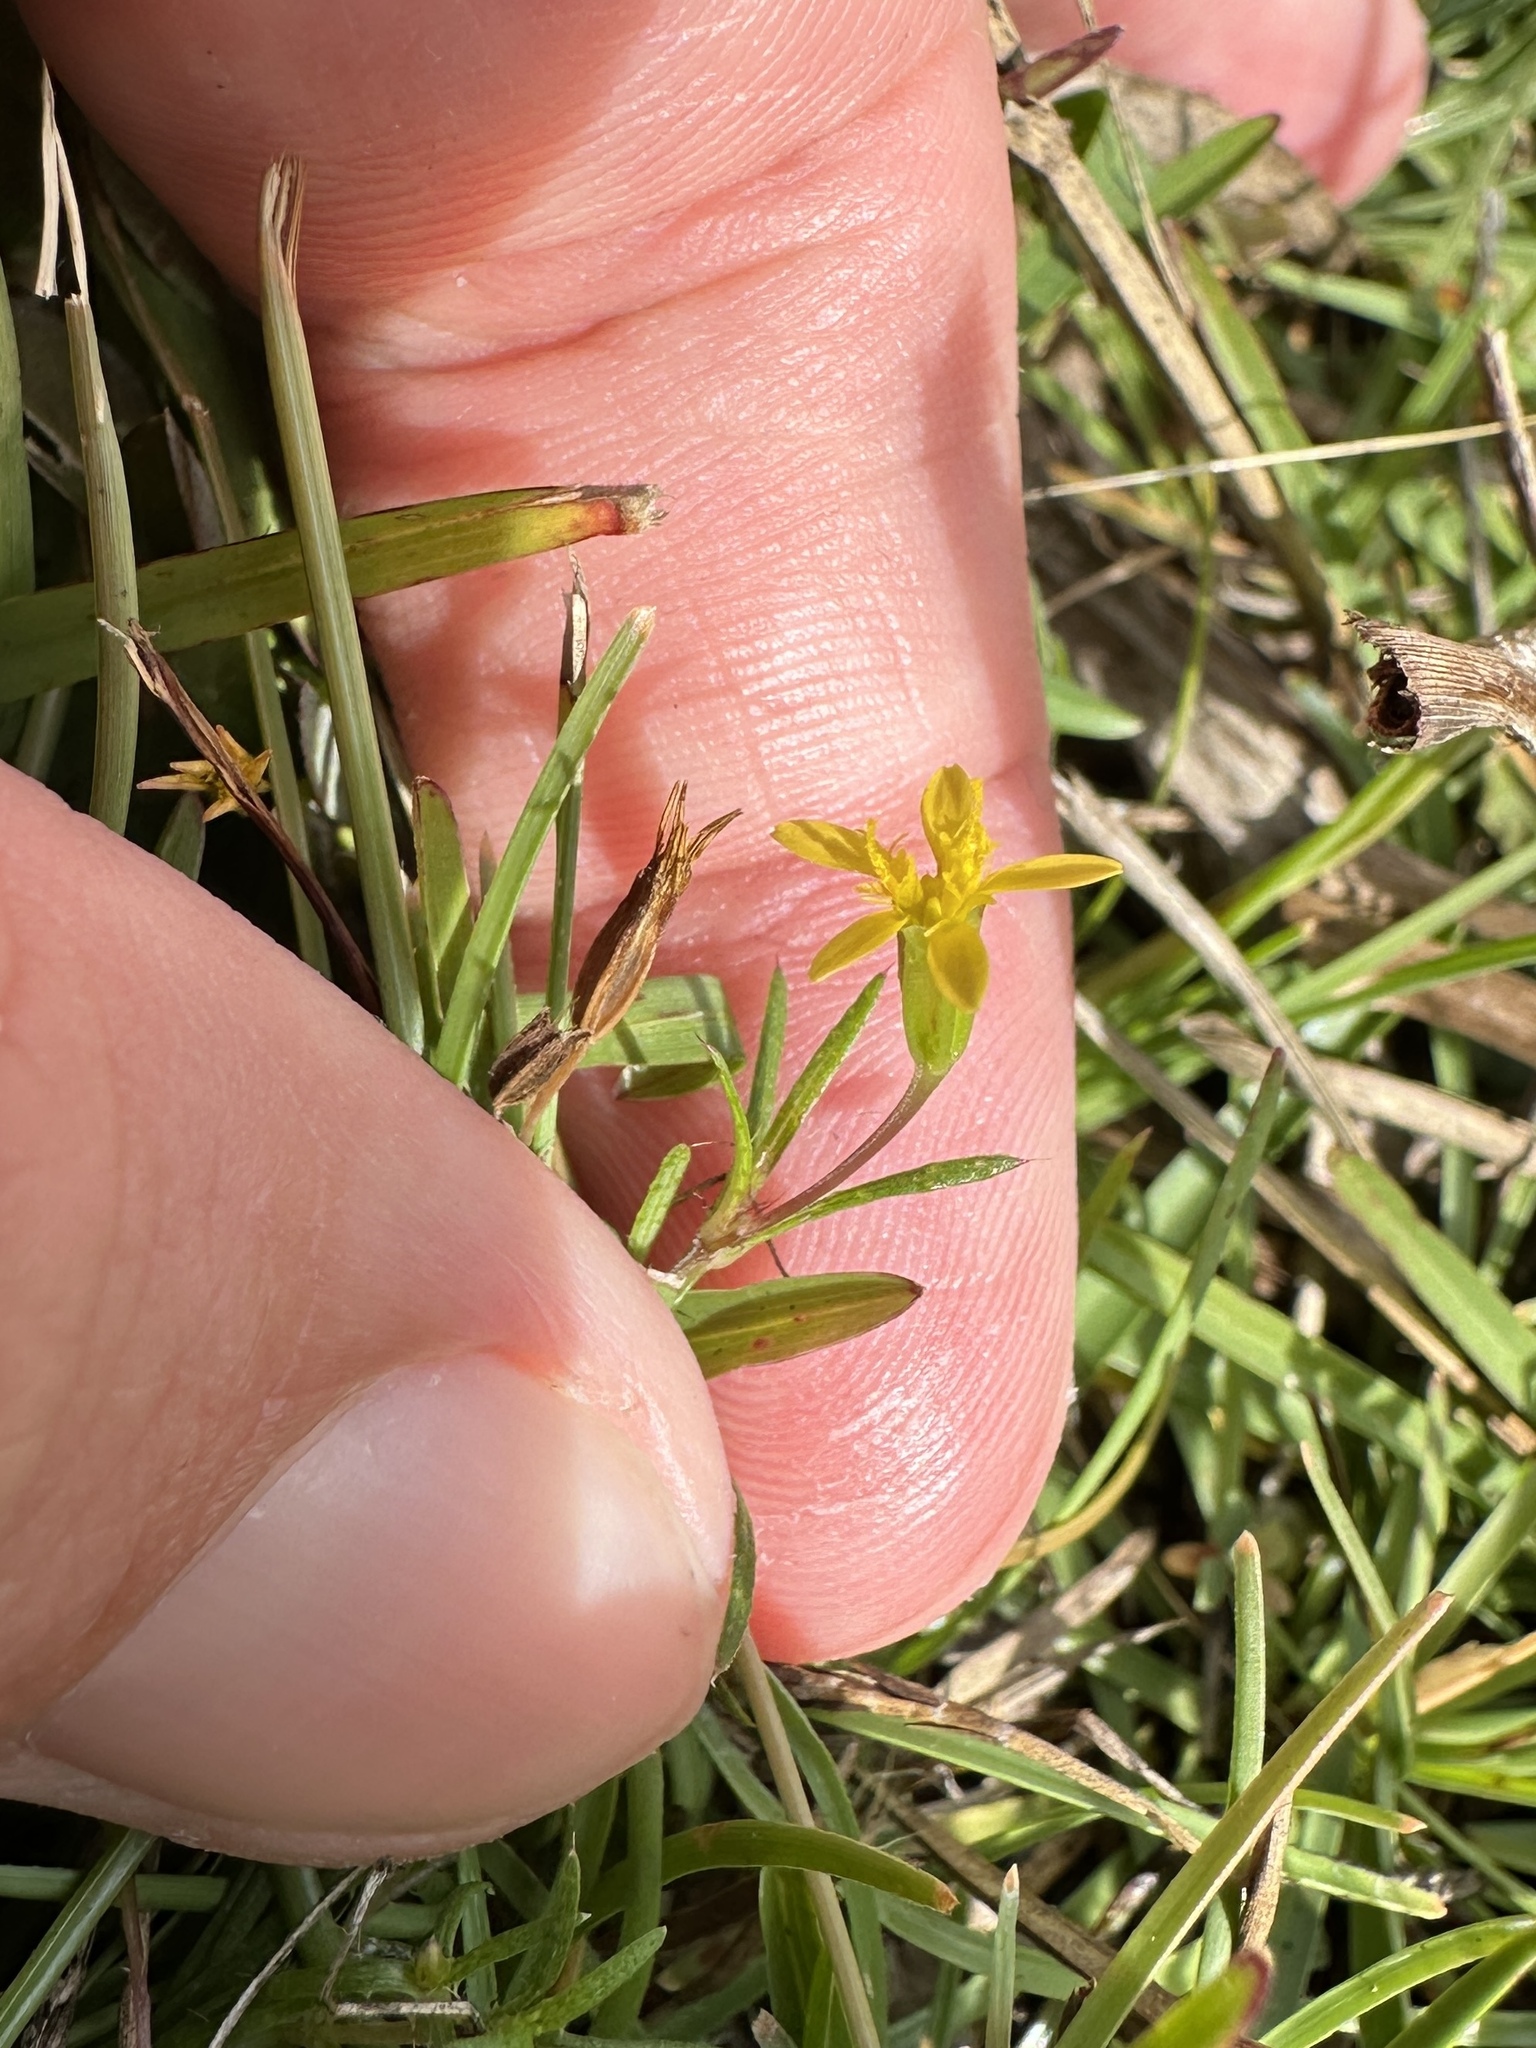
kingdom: Plantae
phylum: Tracheophyta
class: Magnoliopsida
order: Asterales
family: Asteraceae
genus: Pectis
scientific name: Pectis glaucescens
